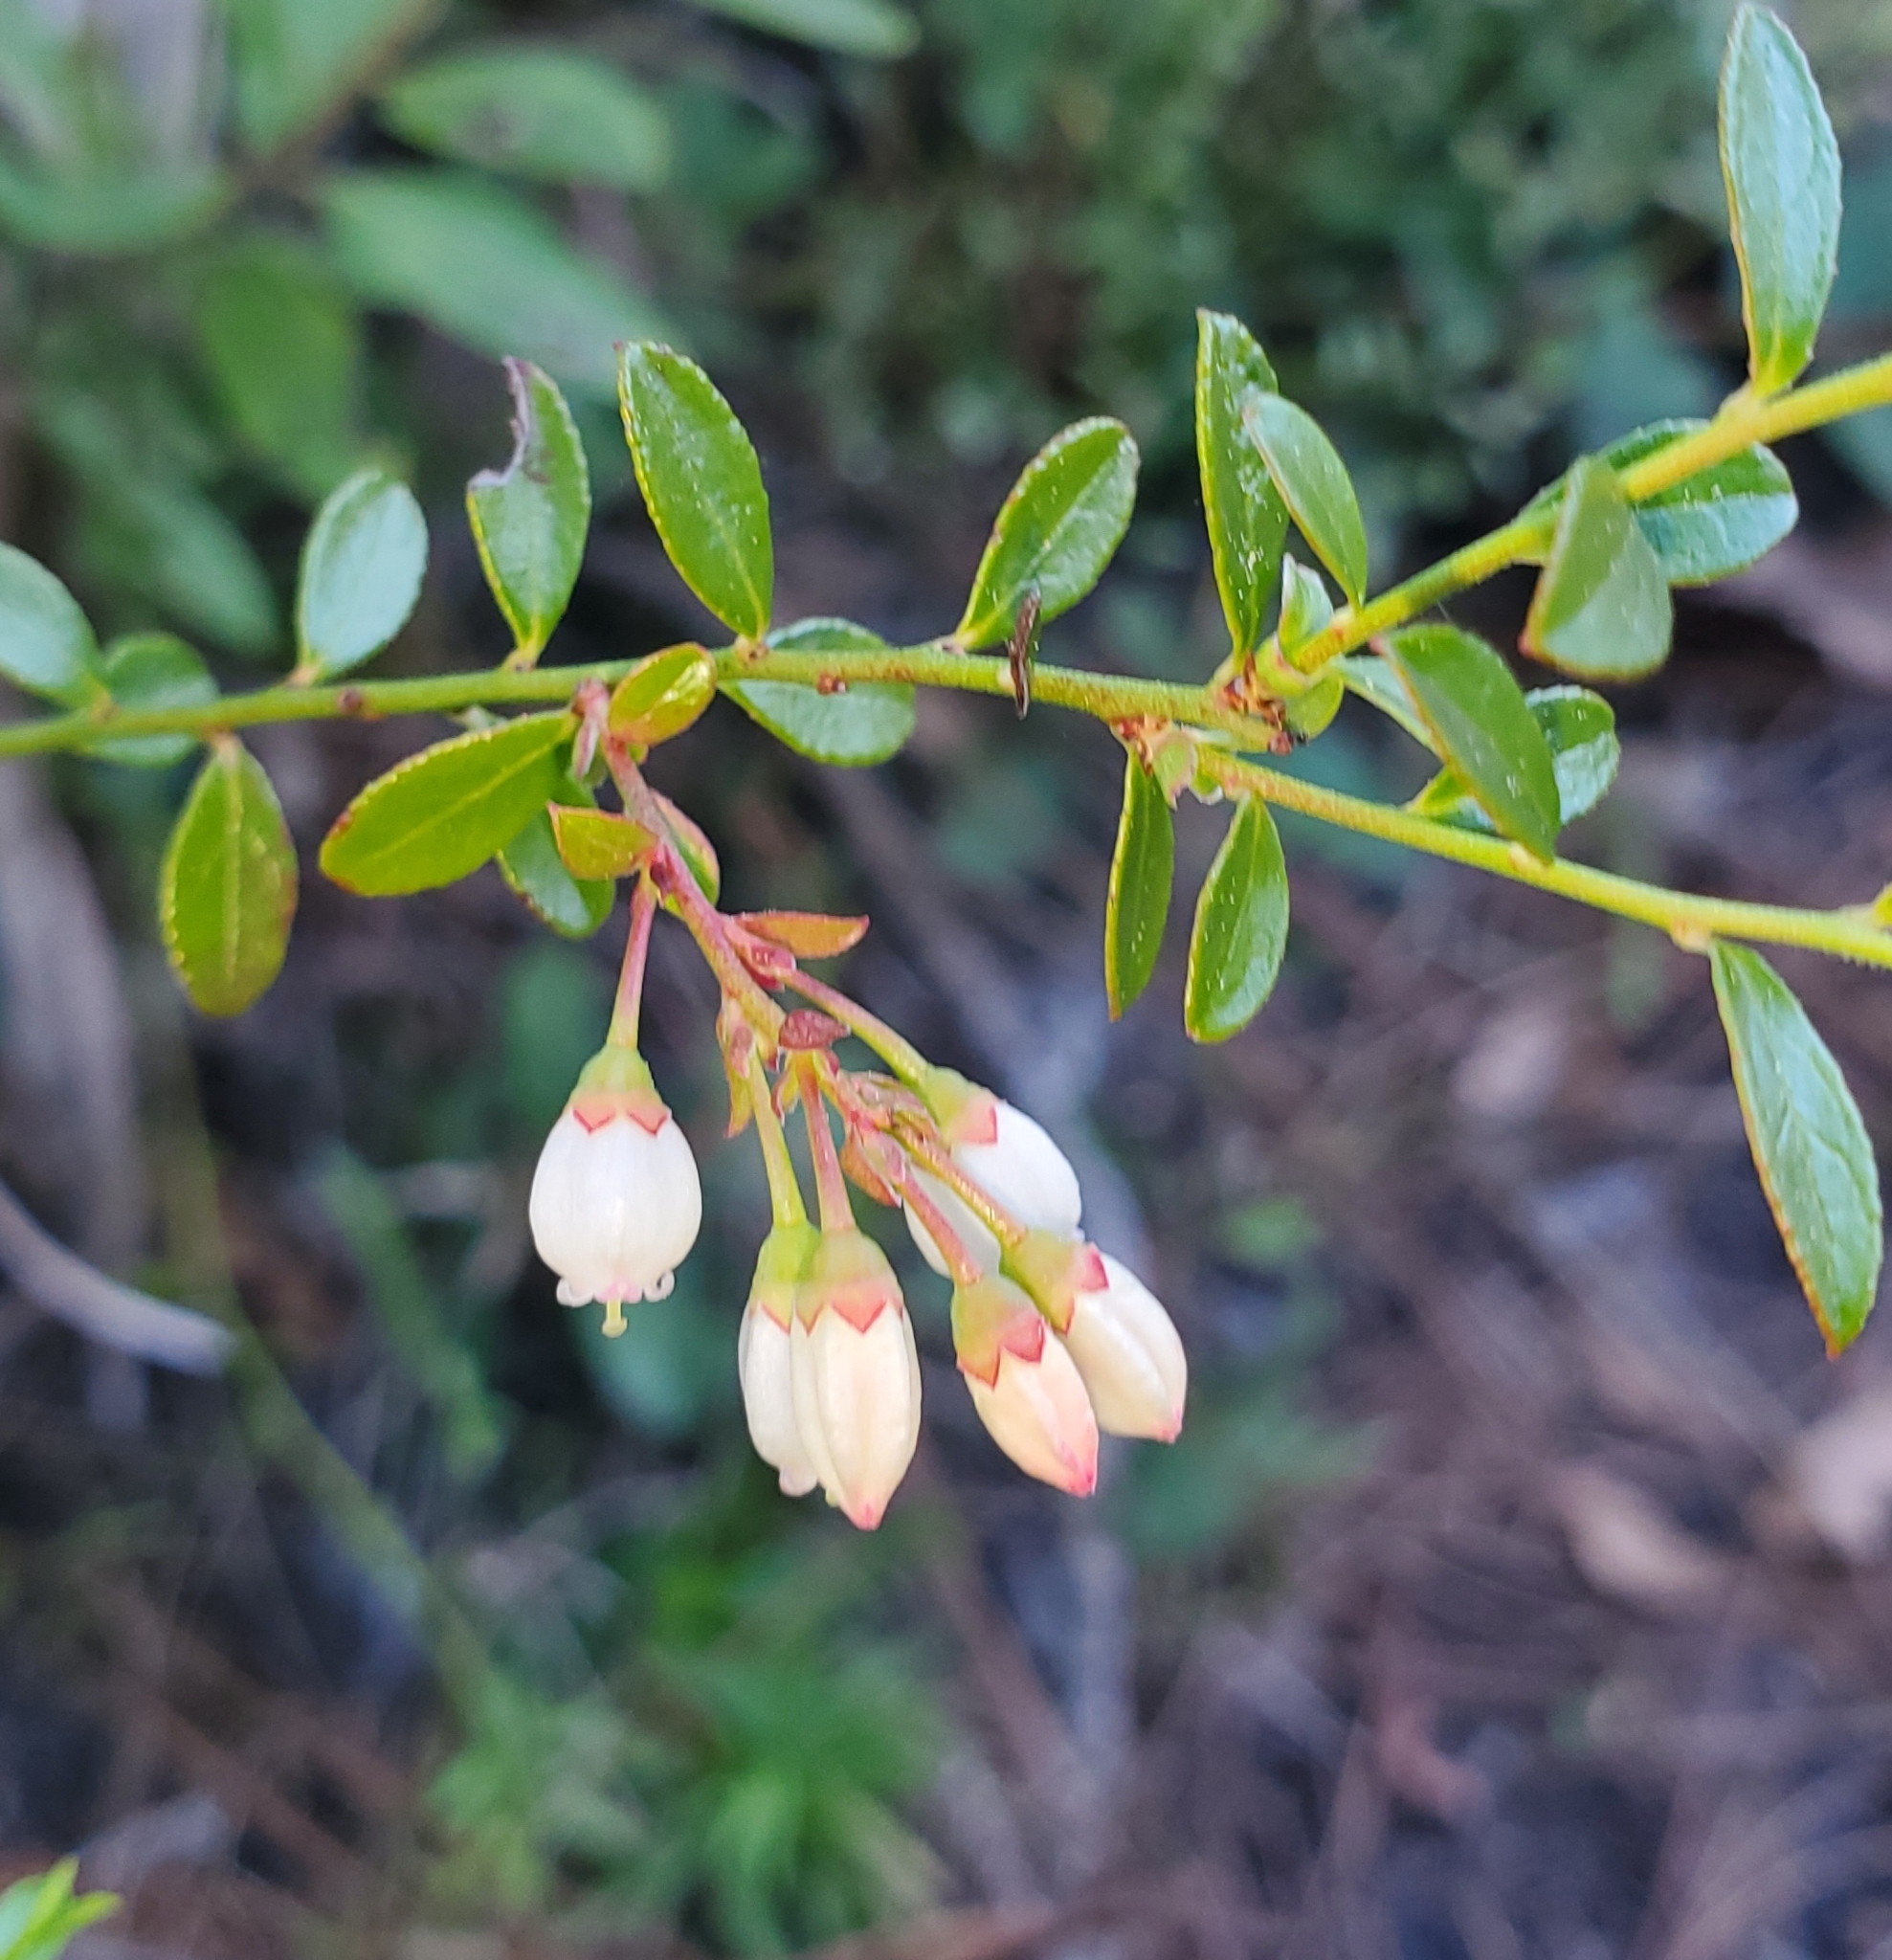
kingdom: Plantae
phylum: Tracheophyta
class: Magnoliopsida
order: Ericales
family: Ericaceae
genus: Vaccinium
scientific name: Vaccinium myrsinites
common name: Evergreen blueberry
